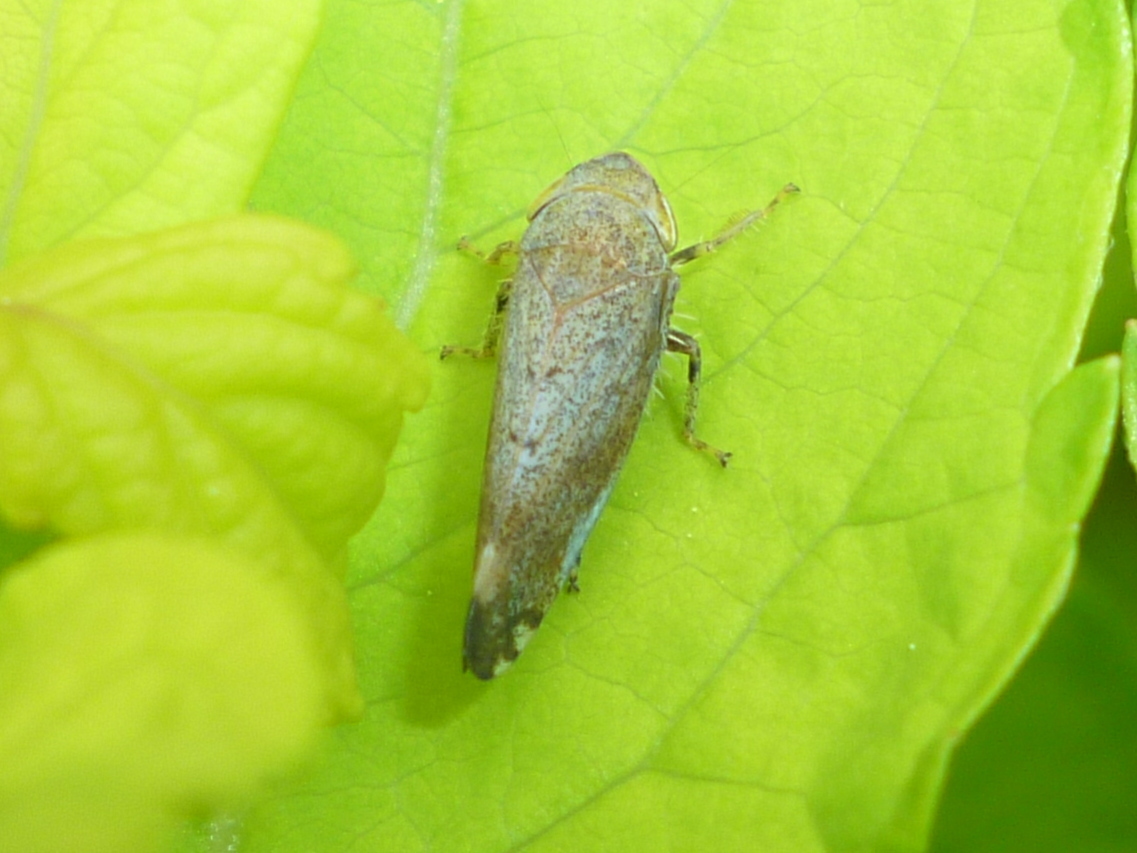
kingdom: Animalia
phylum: Arthropoda
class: Insecta
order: Hemiptera
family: Cicadellidae
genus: Fieberiella
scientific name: Fieberiella florii
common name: Flor’s leafhopper
